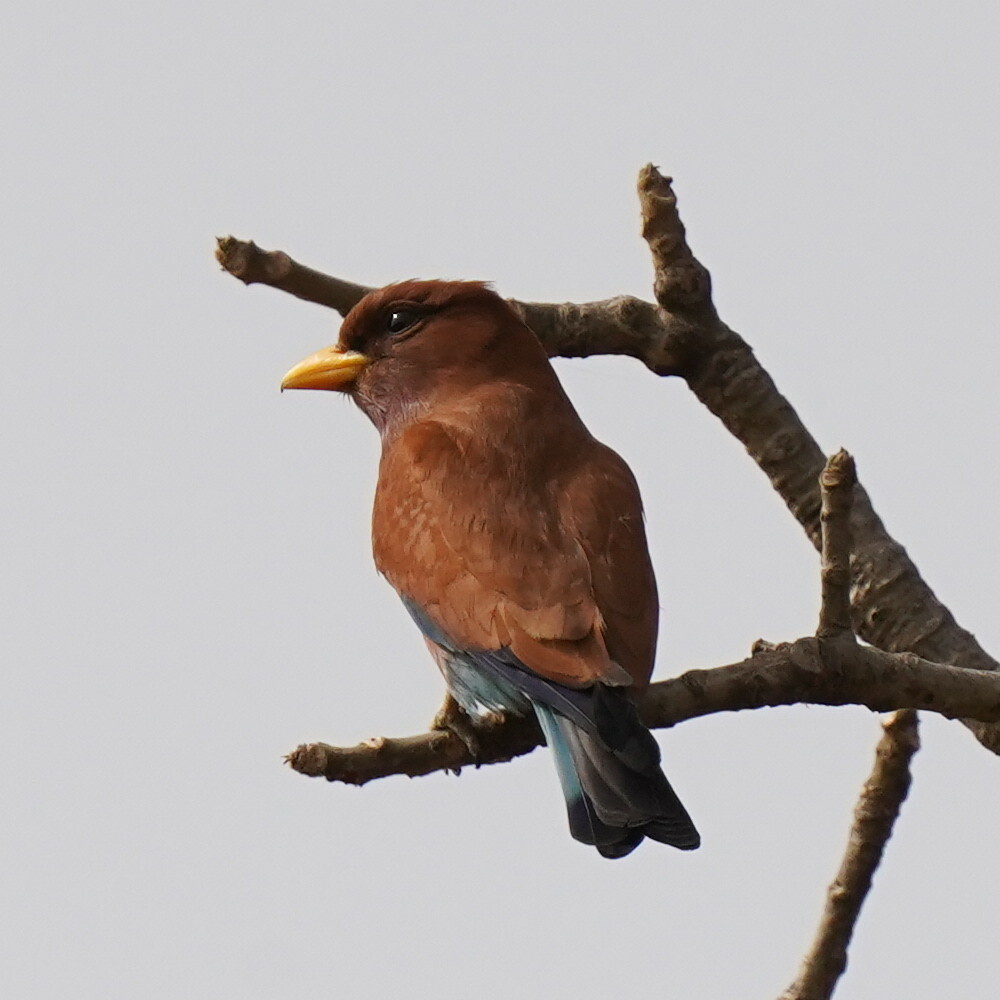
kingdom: Animalia
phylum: Chordata
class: Aves
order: Coraciiformes
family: Coraciidae
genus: Eurystomus
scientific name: Eurystomus glaucurus
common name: Broad-billed roller
